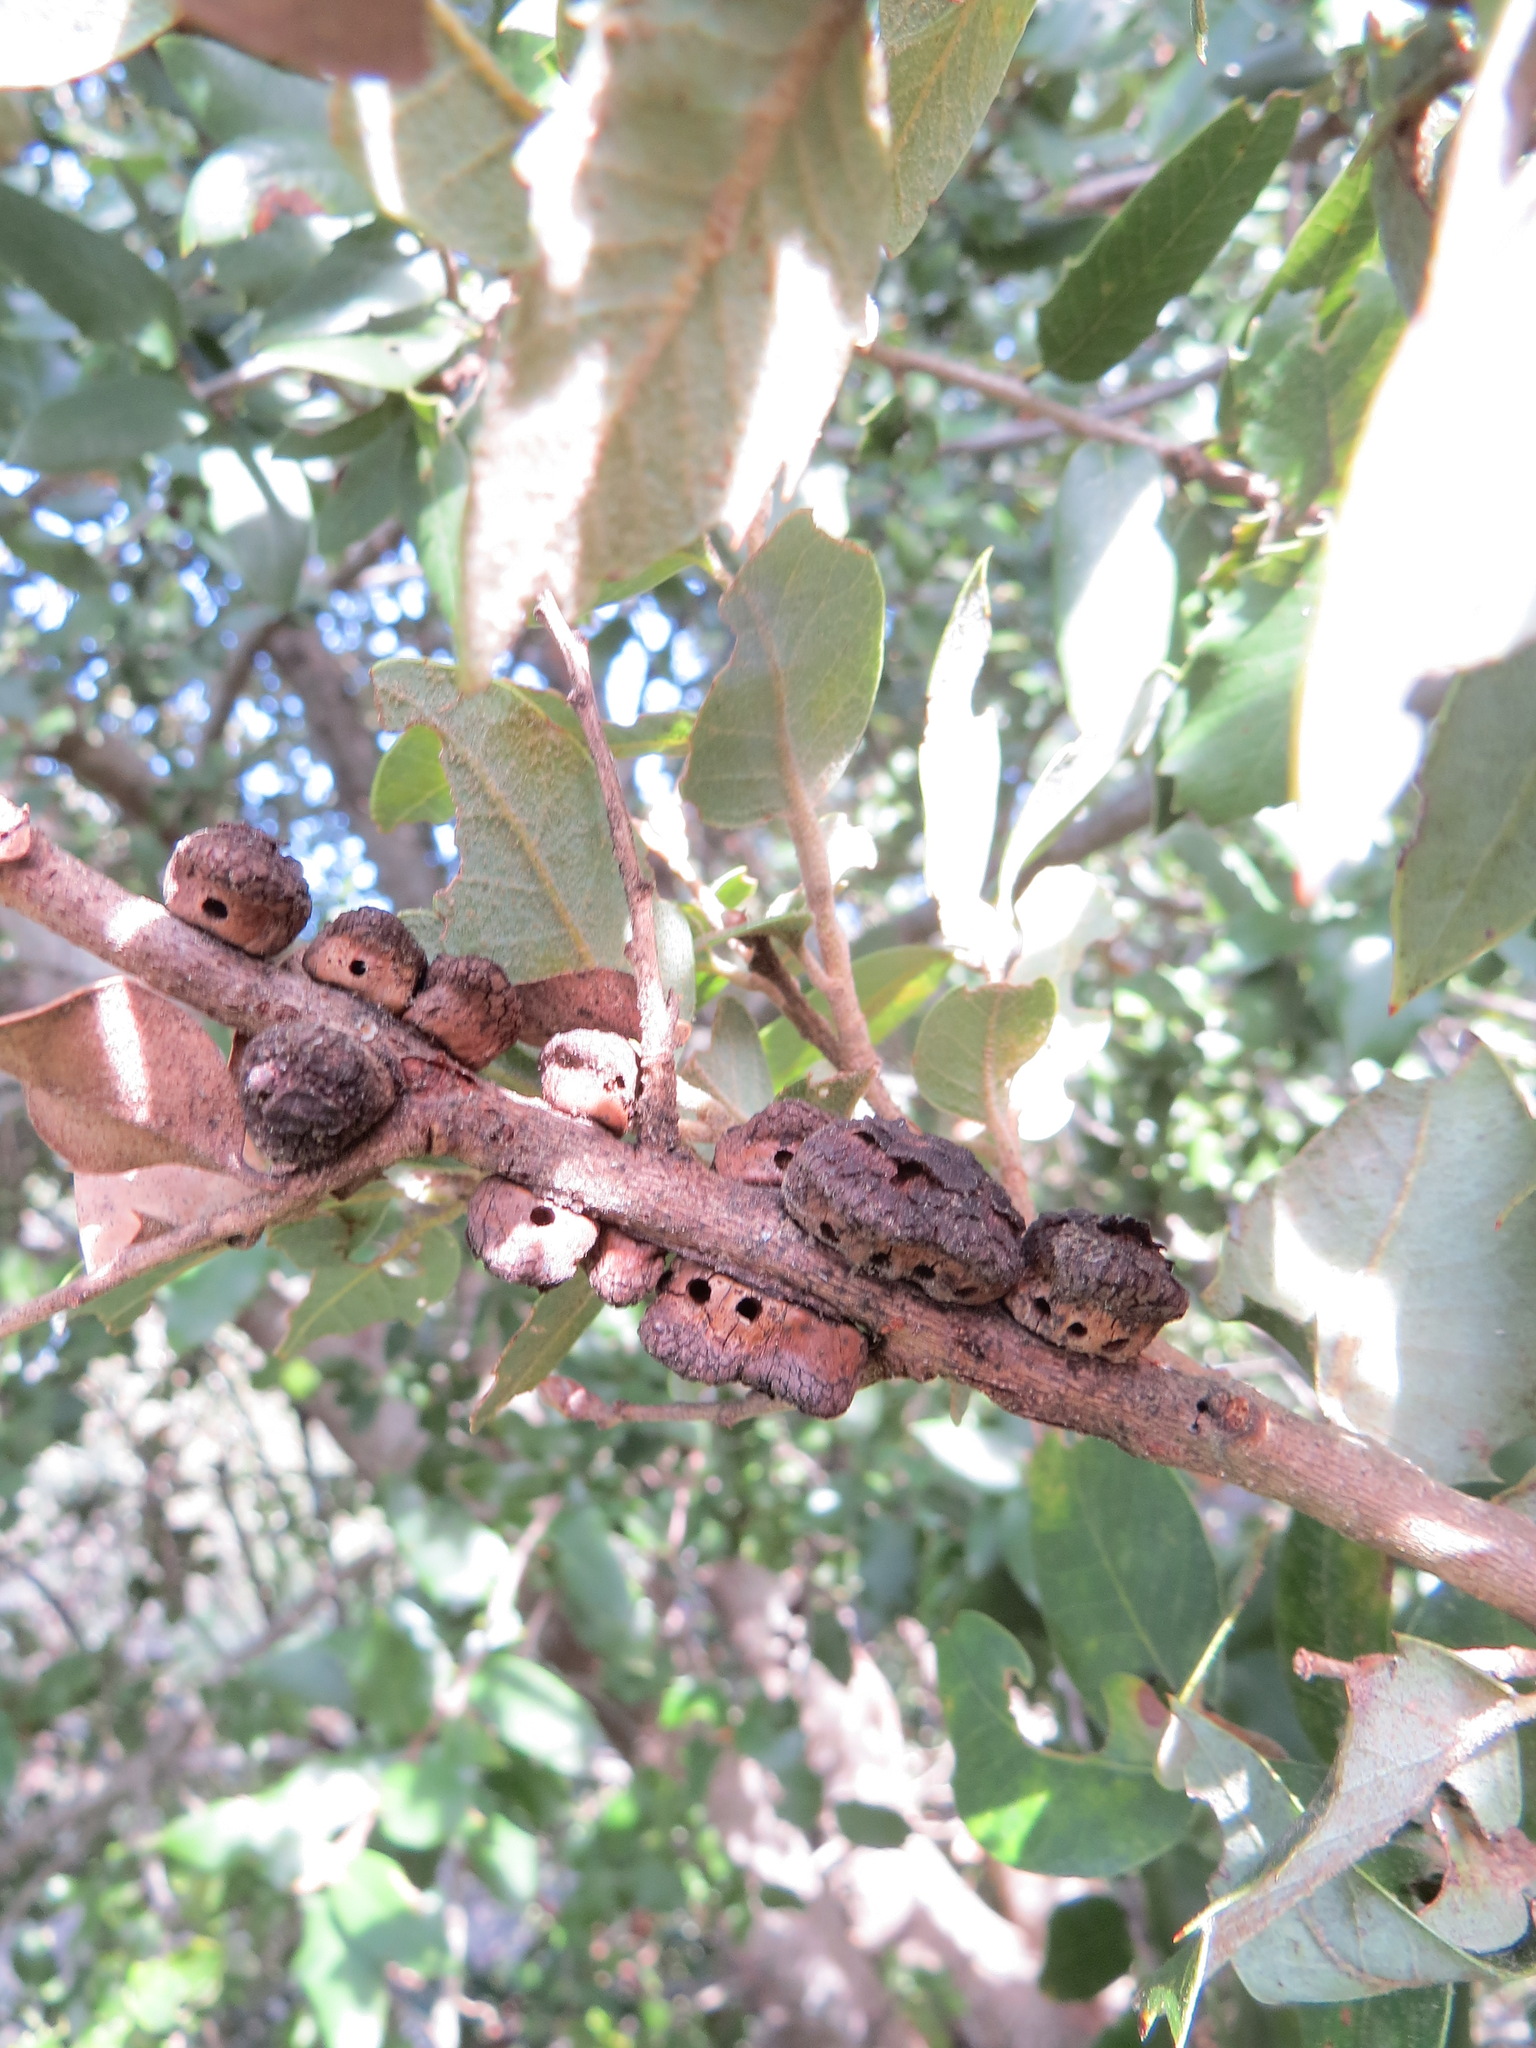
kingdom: Animalia
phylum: Arthropoda
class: Insecta
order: Hymenoptera
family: Cynipidae
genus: Disholandricus
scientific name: Disholandricus
